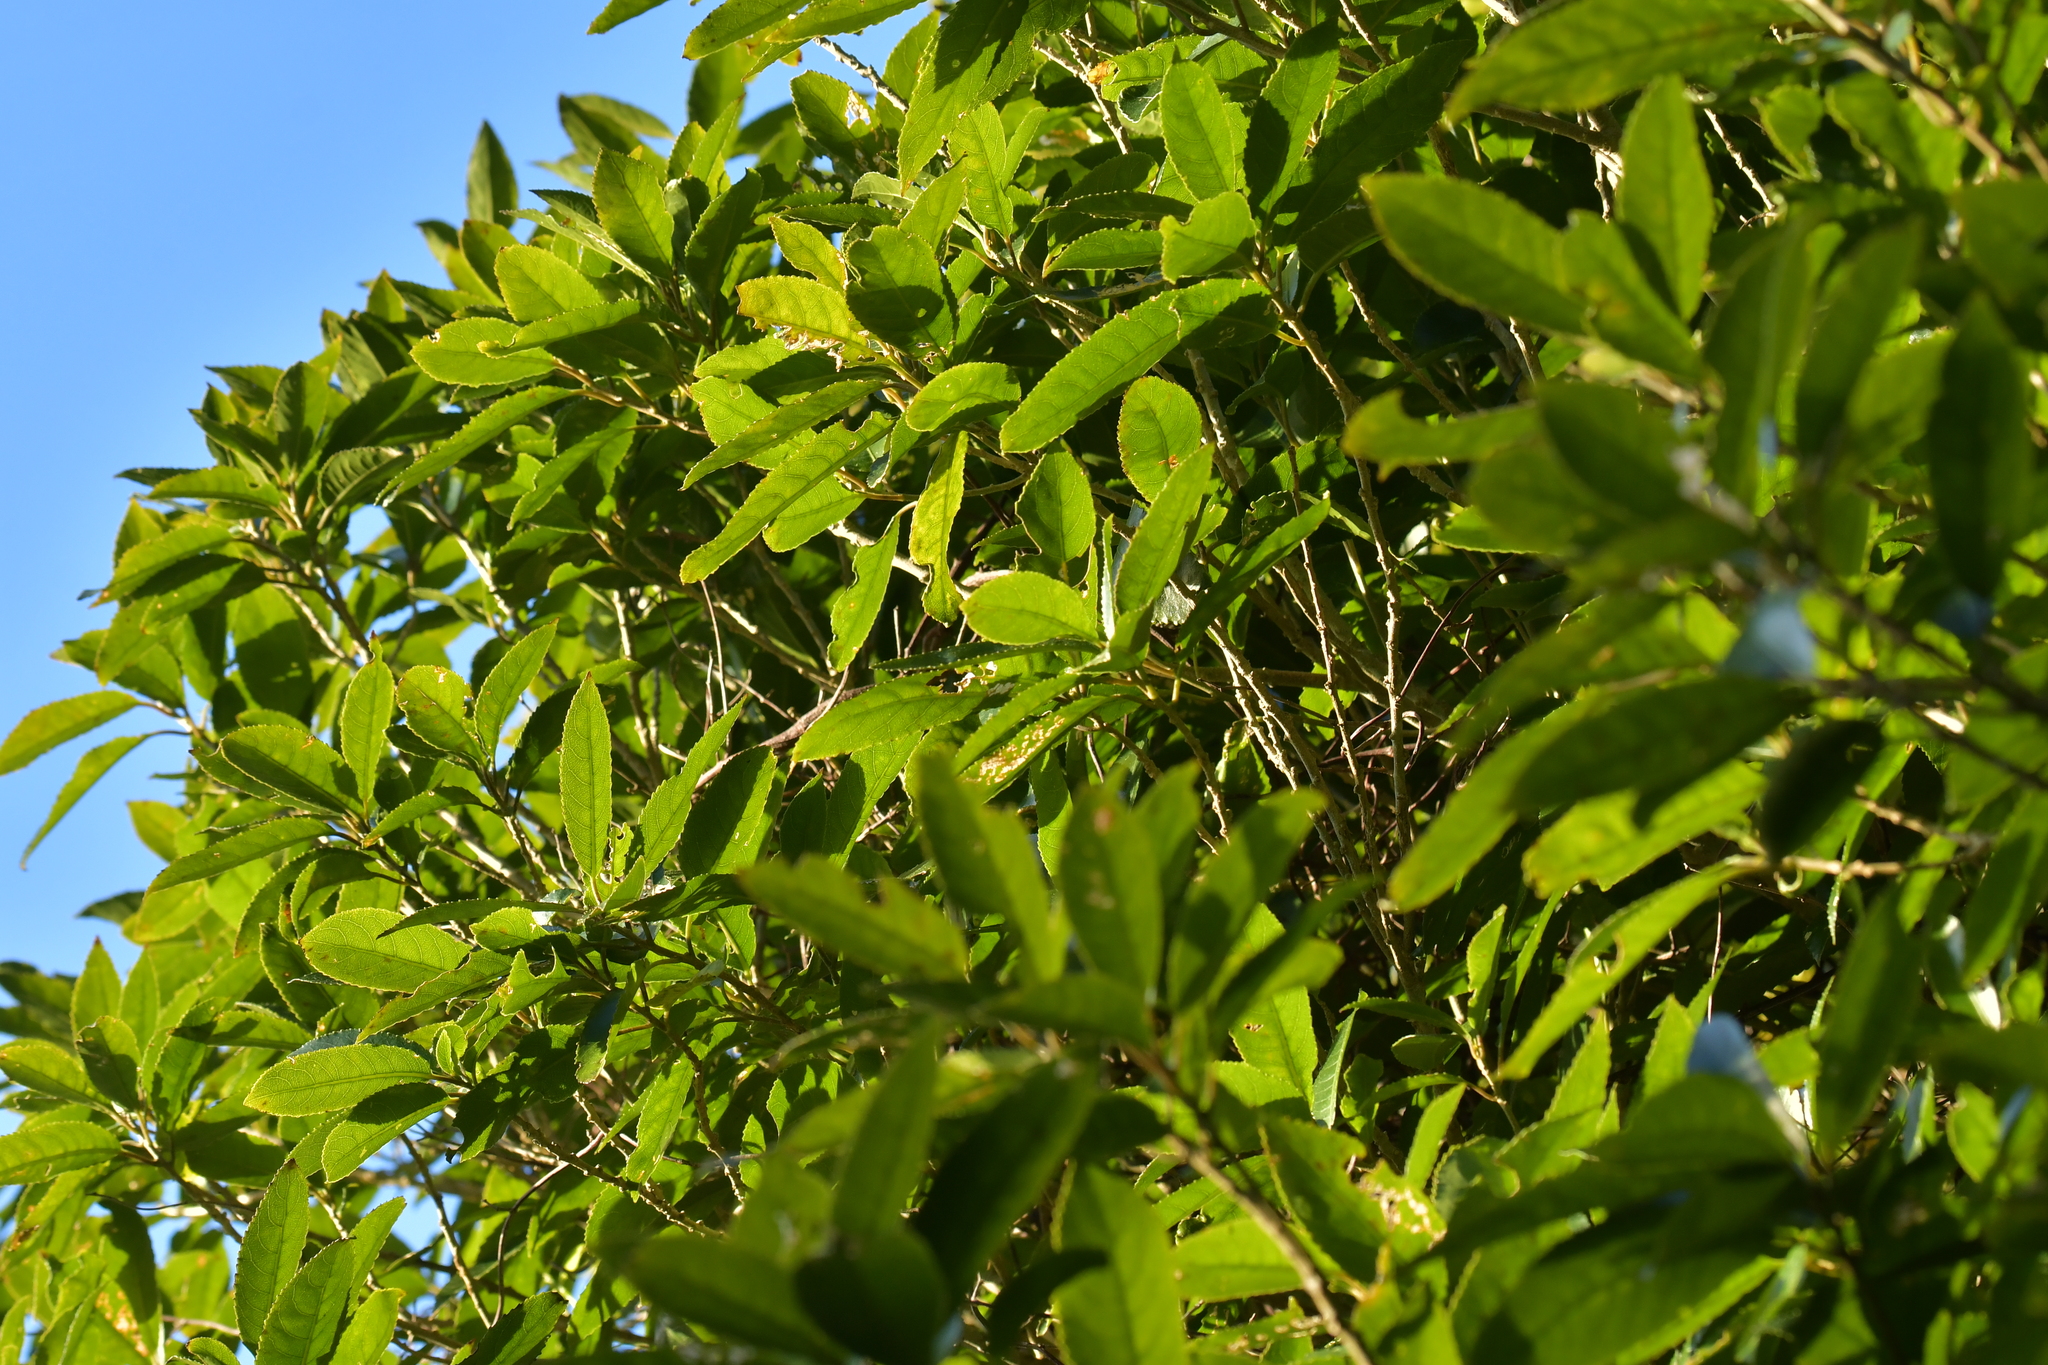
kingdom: Plantae
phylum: Tracheophyta
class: Magnoliopsida
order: Malpighiales
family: Violaceae
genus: Melicytus
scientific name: Melicytus ramiflorus
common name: Mahoe
